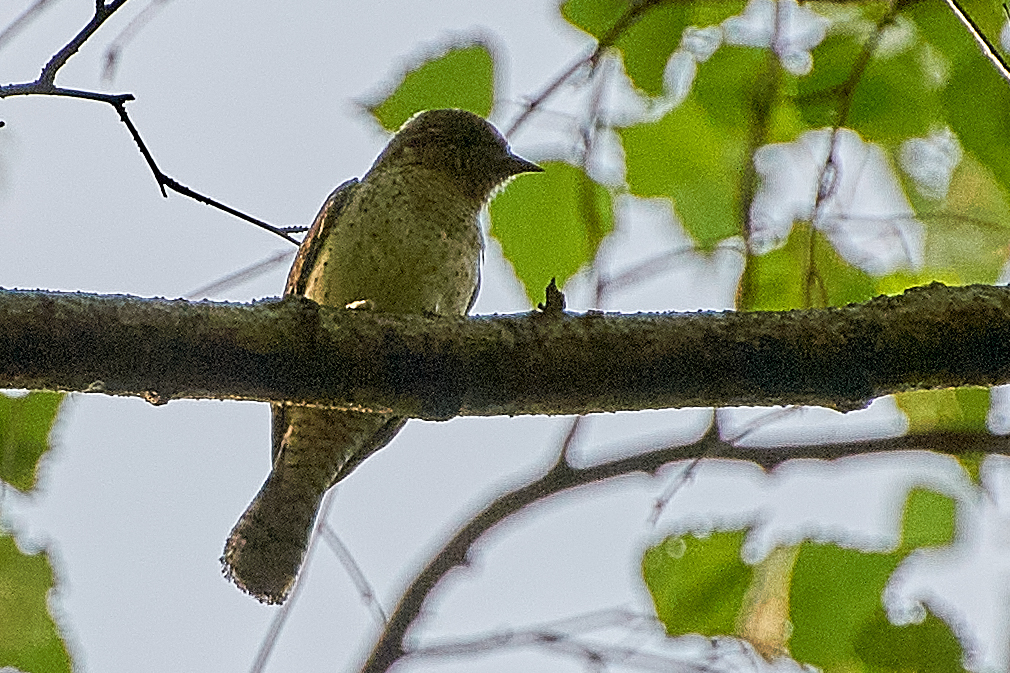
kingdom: Animalia
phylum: Chordata
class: Aves
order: Piciformes
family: Picidae
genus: Jynx
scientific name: Jynx torquilla
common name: Eurasian wryneck
